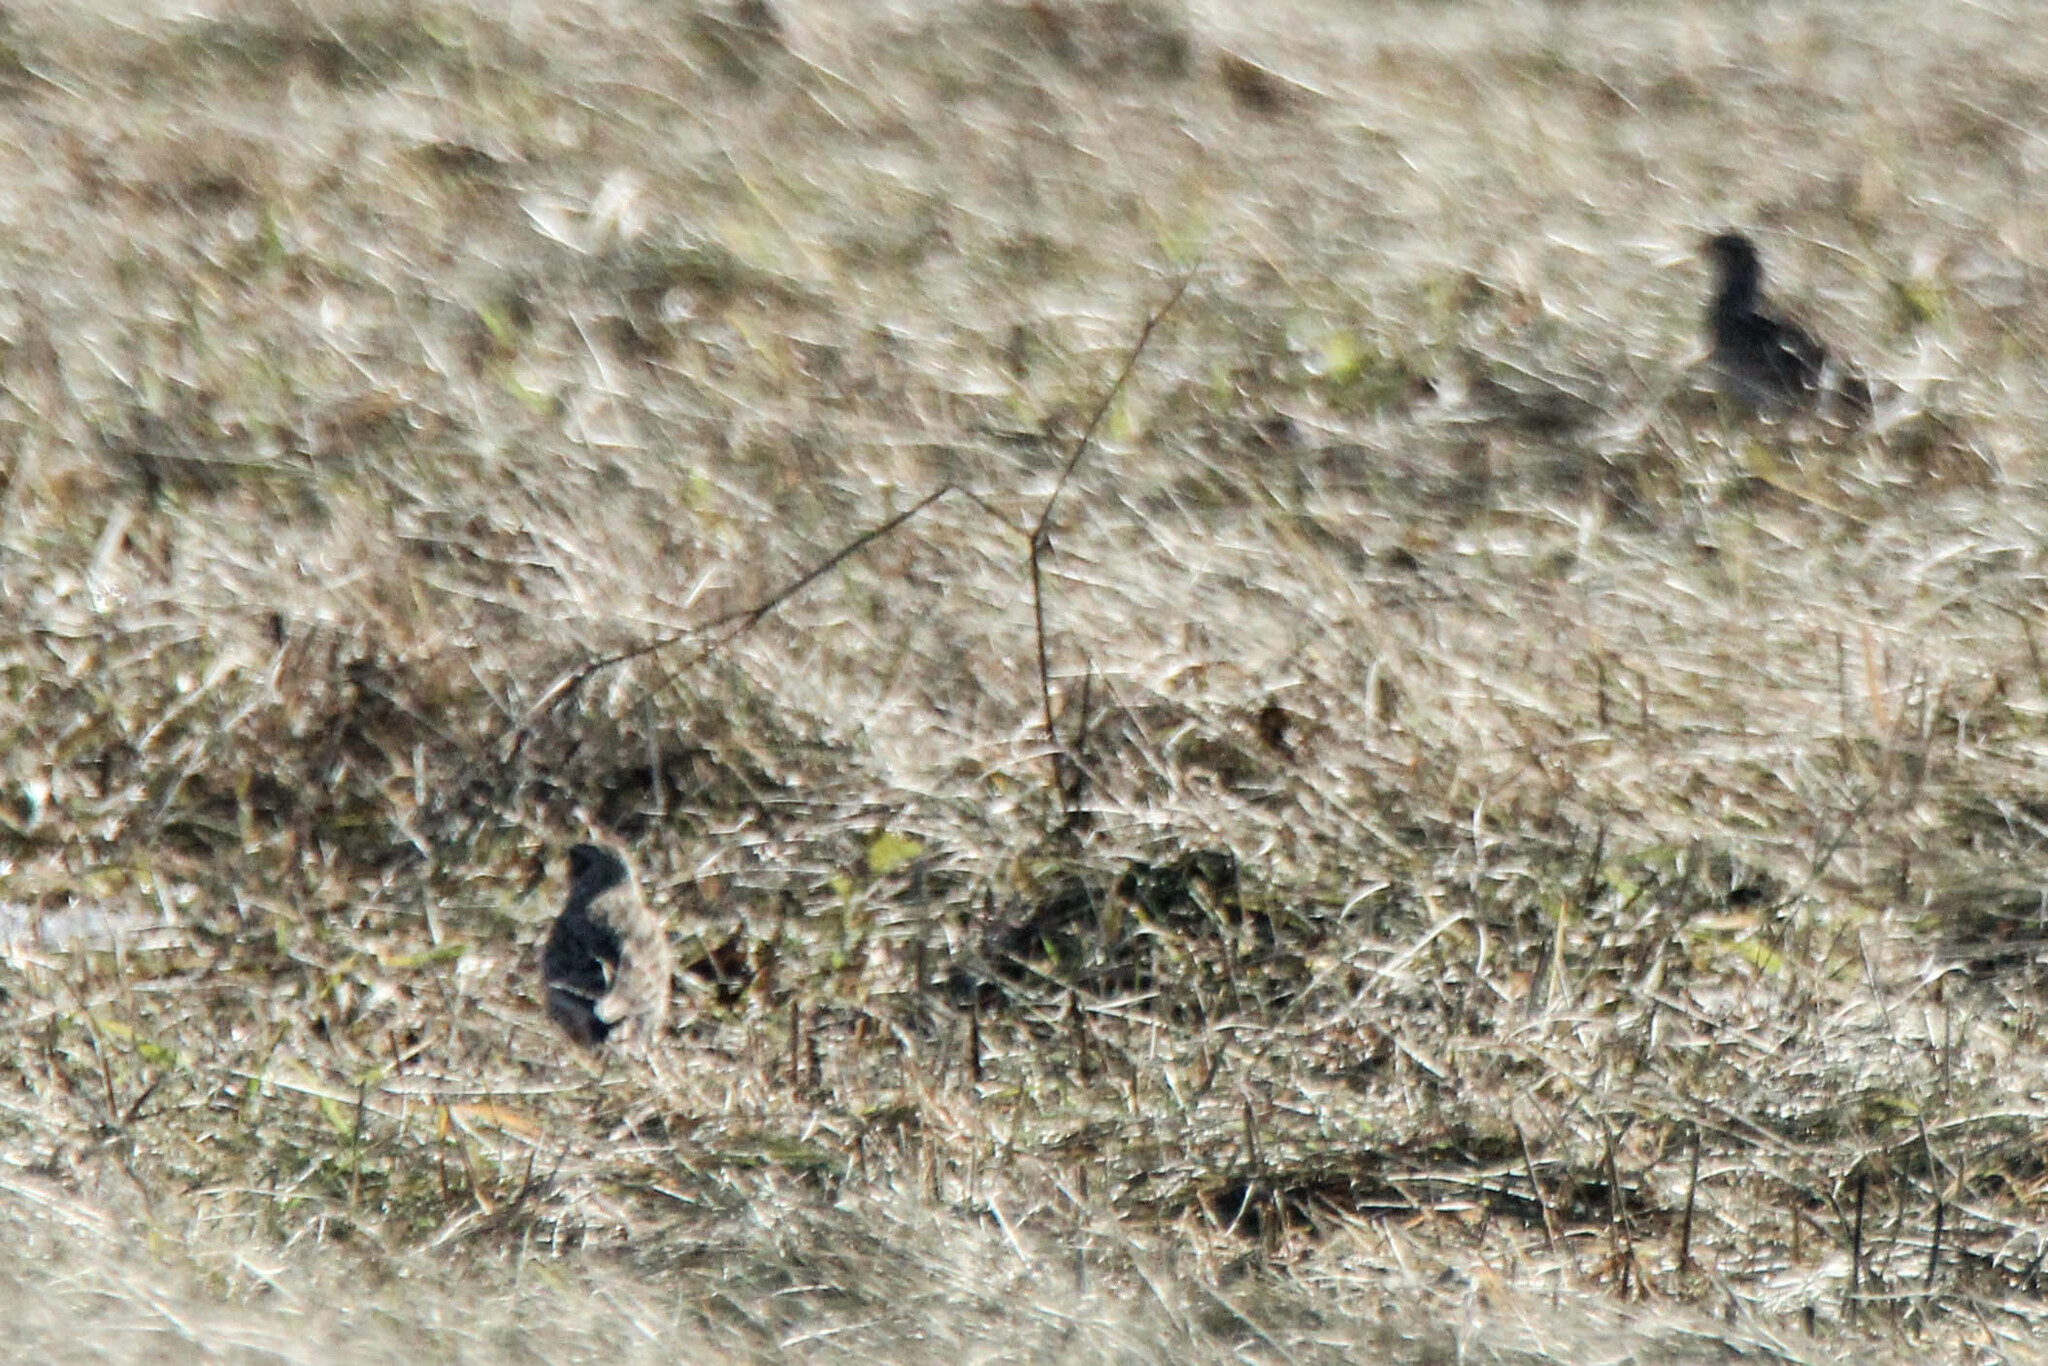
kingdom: Animalia
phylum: Chordata
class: Aves
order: Passeriformes
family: Alaudidae
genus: Alauda
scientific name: Alauda arvensis
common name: Eurasian skylark
